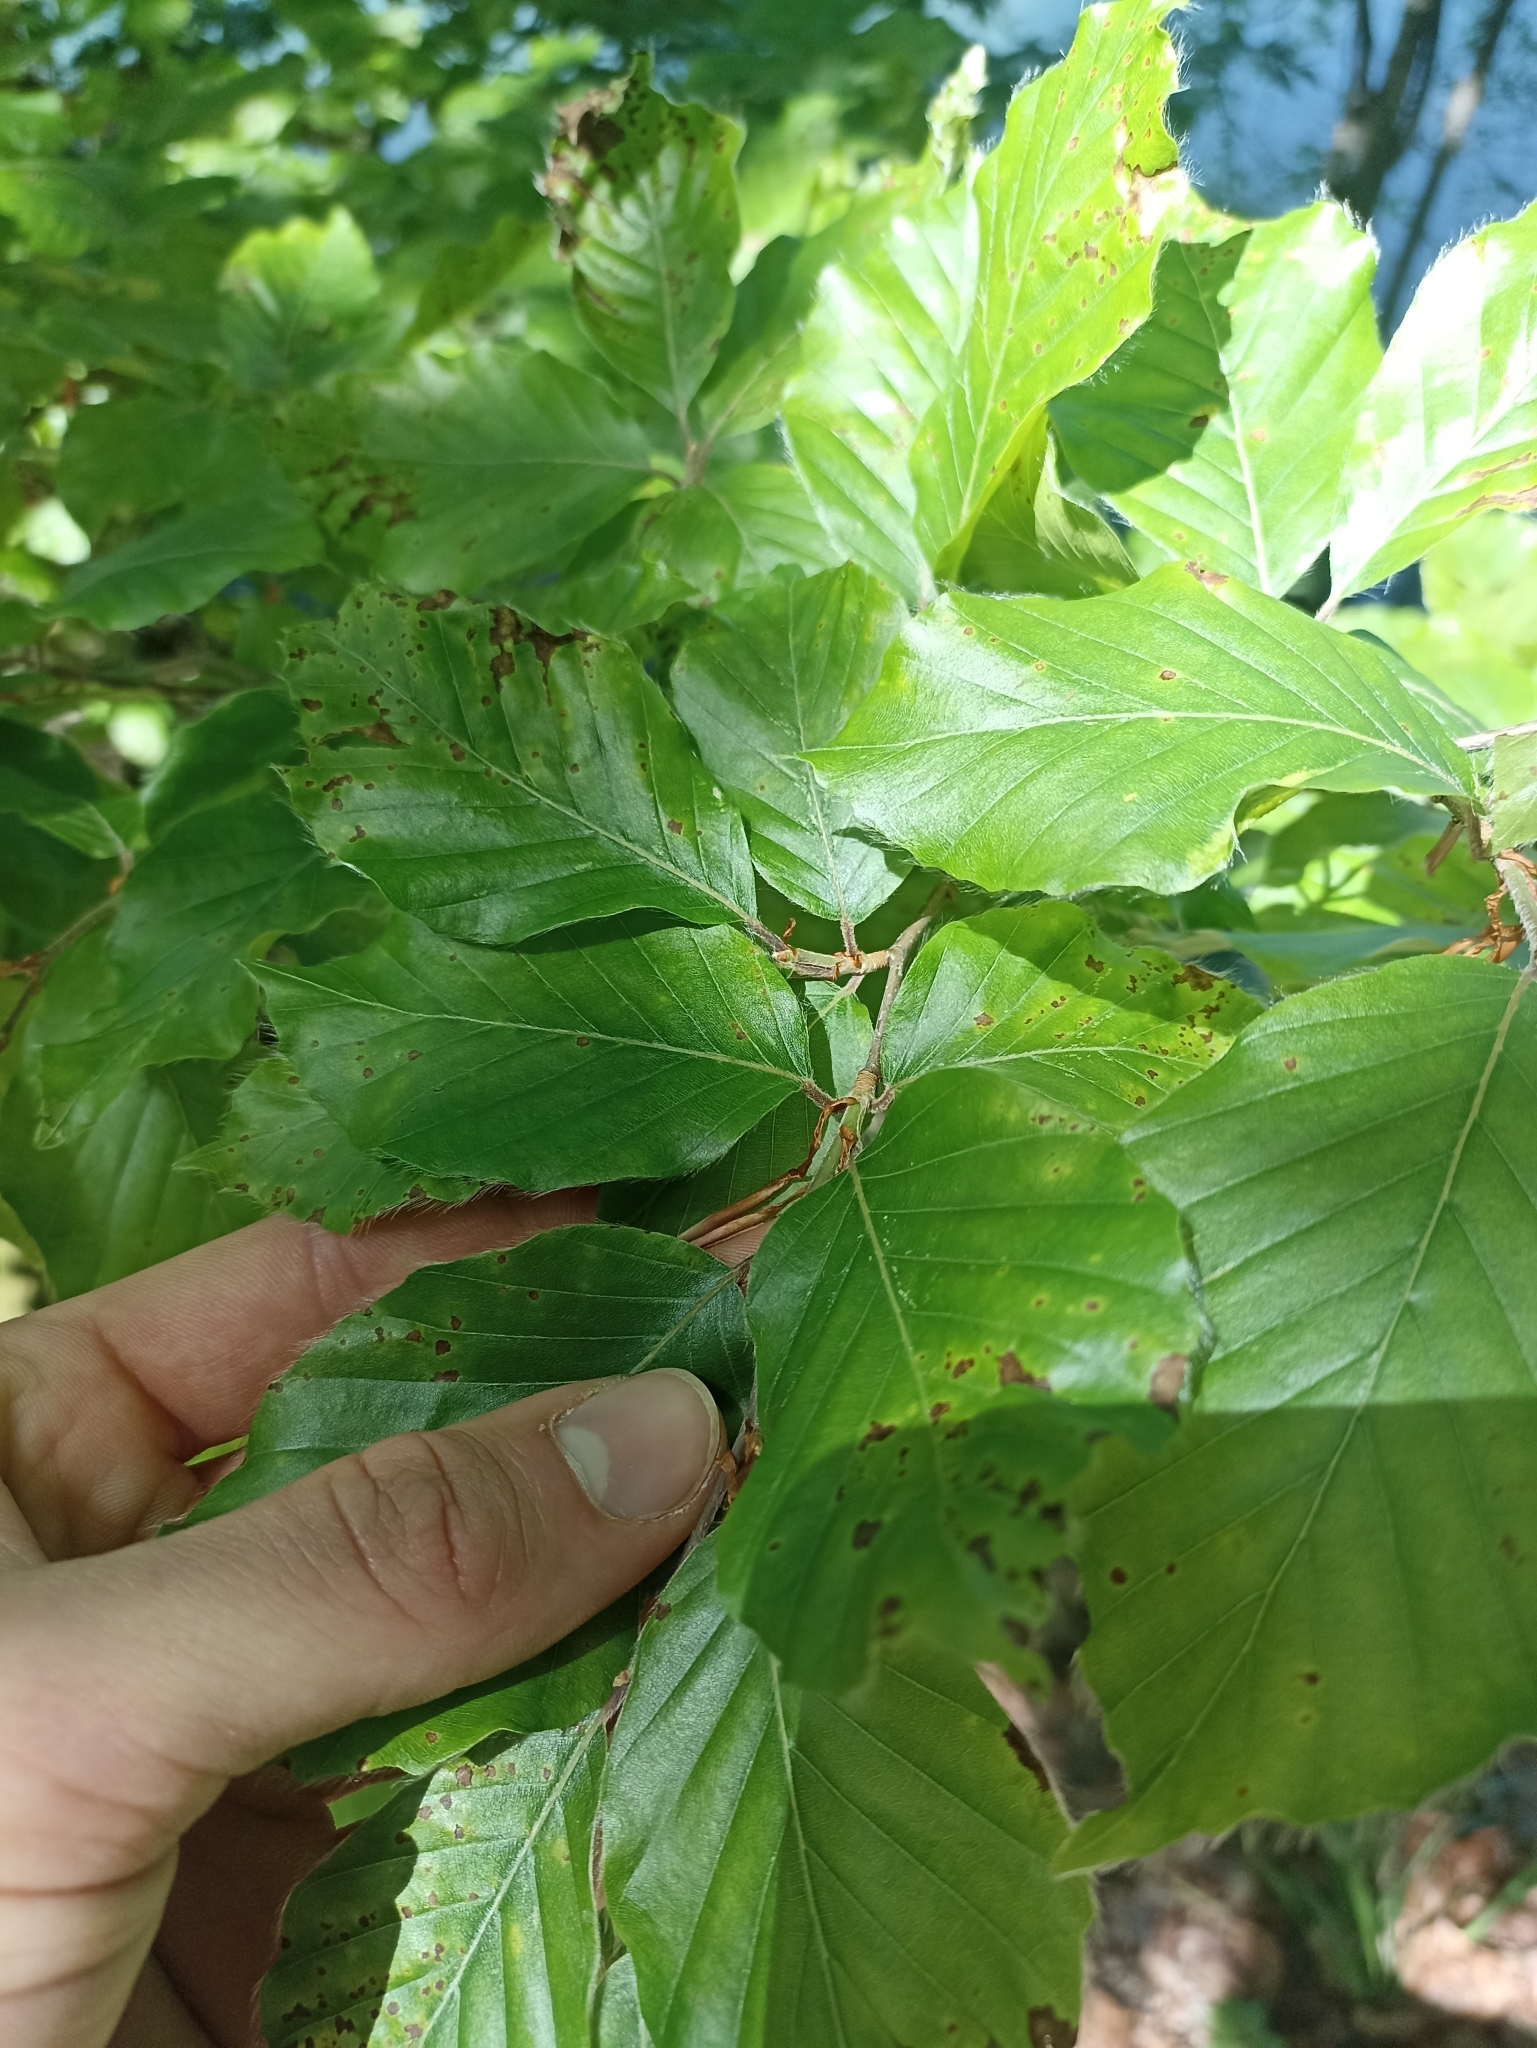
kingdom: Plantae
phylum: Tracheophyta
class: Magnoliopsida
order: Fagales
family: Fagaceae
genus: Fagus
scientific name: Fagus sylvatica
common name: Beech
